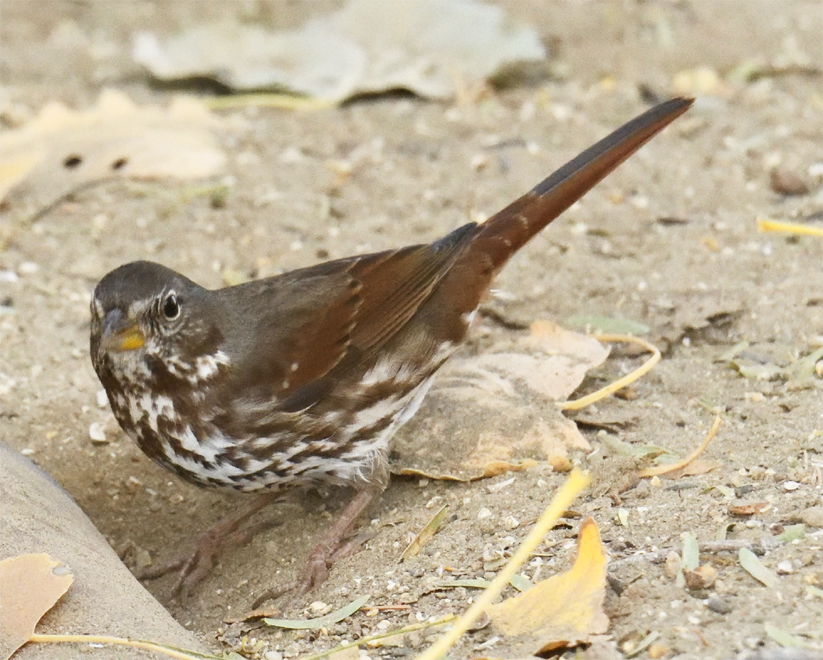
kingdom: Animalia
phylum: Chordata
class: Aves
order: Passeriformes
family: Passerellidae
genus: Passerella
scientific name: Passerella iliaca
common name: Fox sparrow
